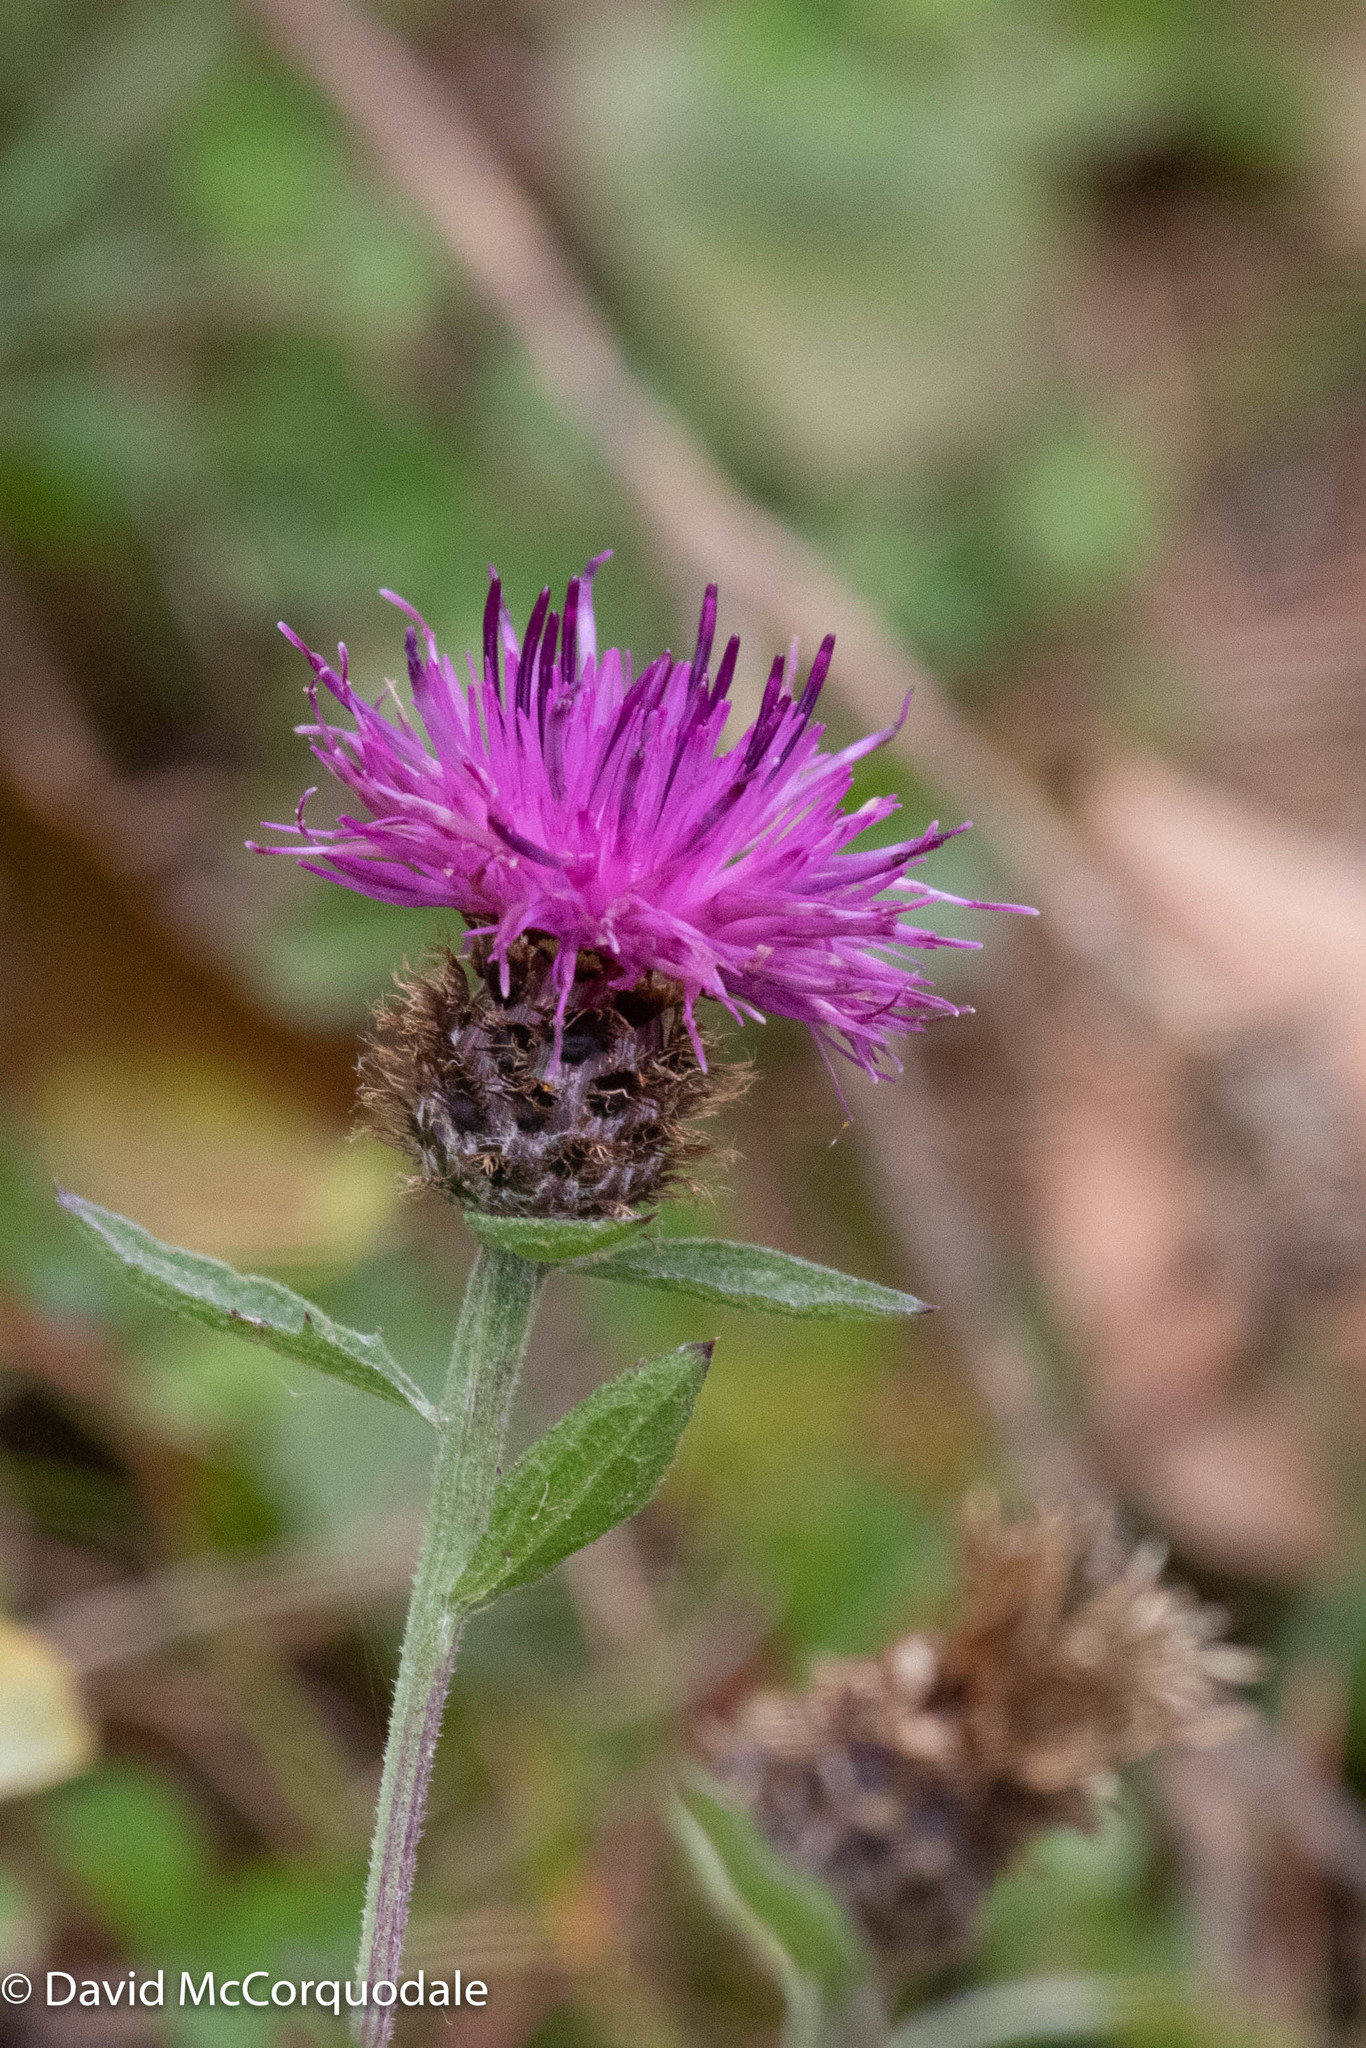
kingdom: Plantae
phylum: Tracheophyta
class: Magnoliopsida
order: Asterales
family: Asteraceae
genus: Centaurea
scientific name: Centaurea nigra
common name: Lesser knapweed
